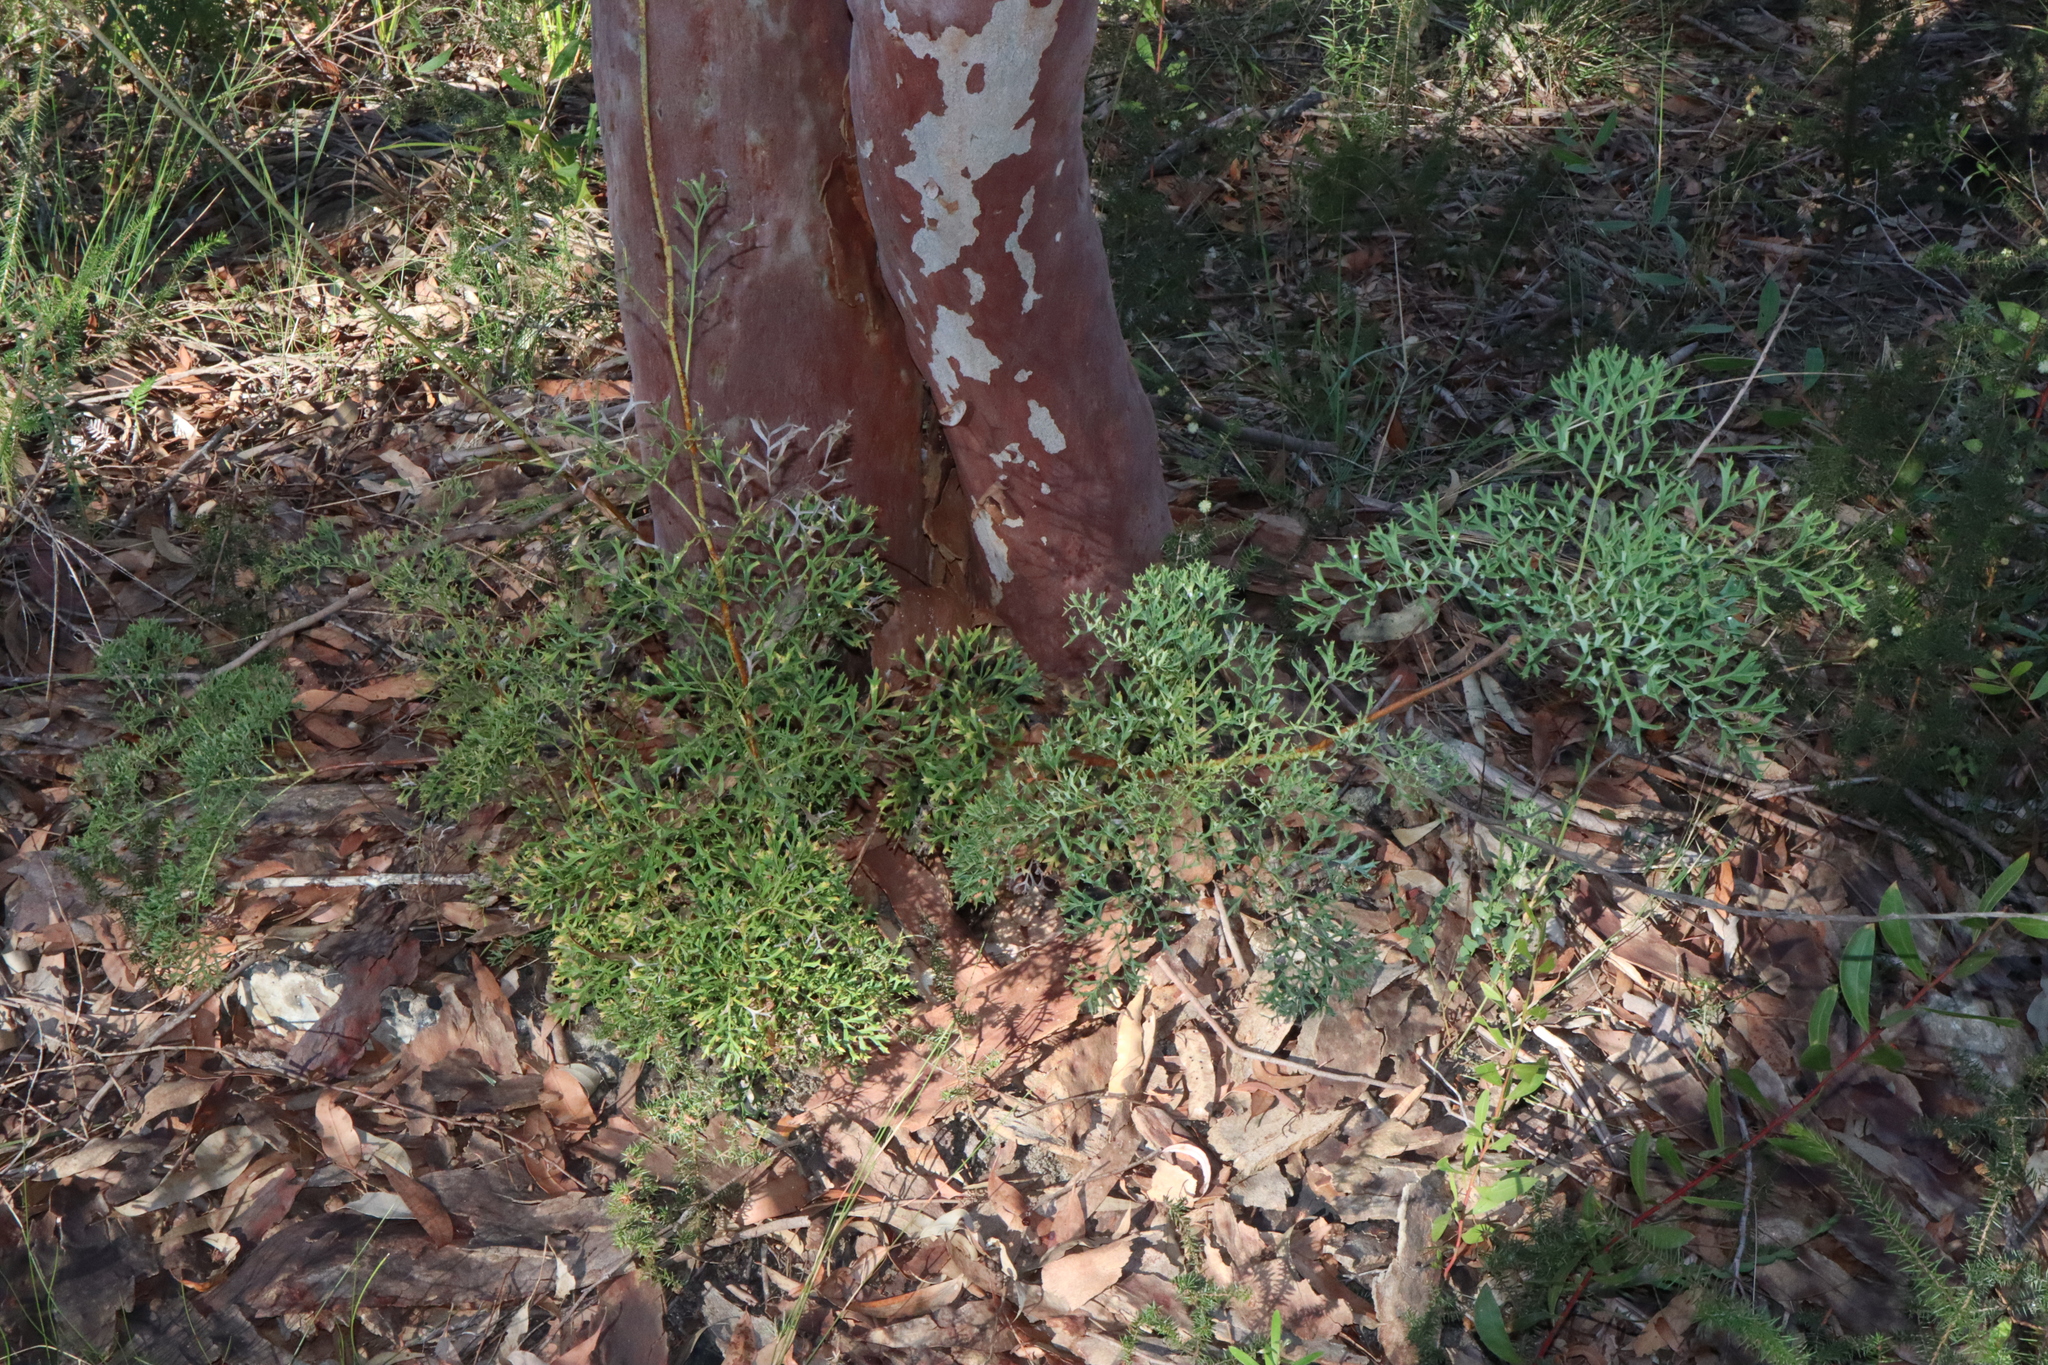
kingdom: Plantae
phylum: Tracheophyta
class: Magnoliopsida
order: Proteales
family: Proteaceae
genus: Lomatia
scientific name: Lomatia silaifolia
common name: Crinklebush
